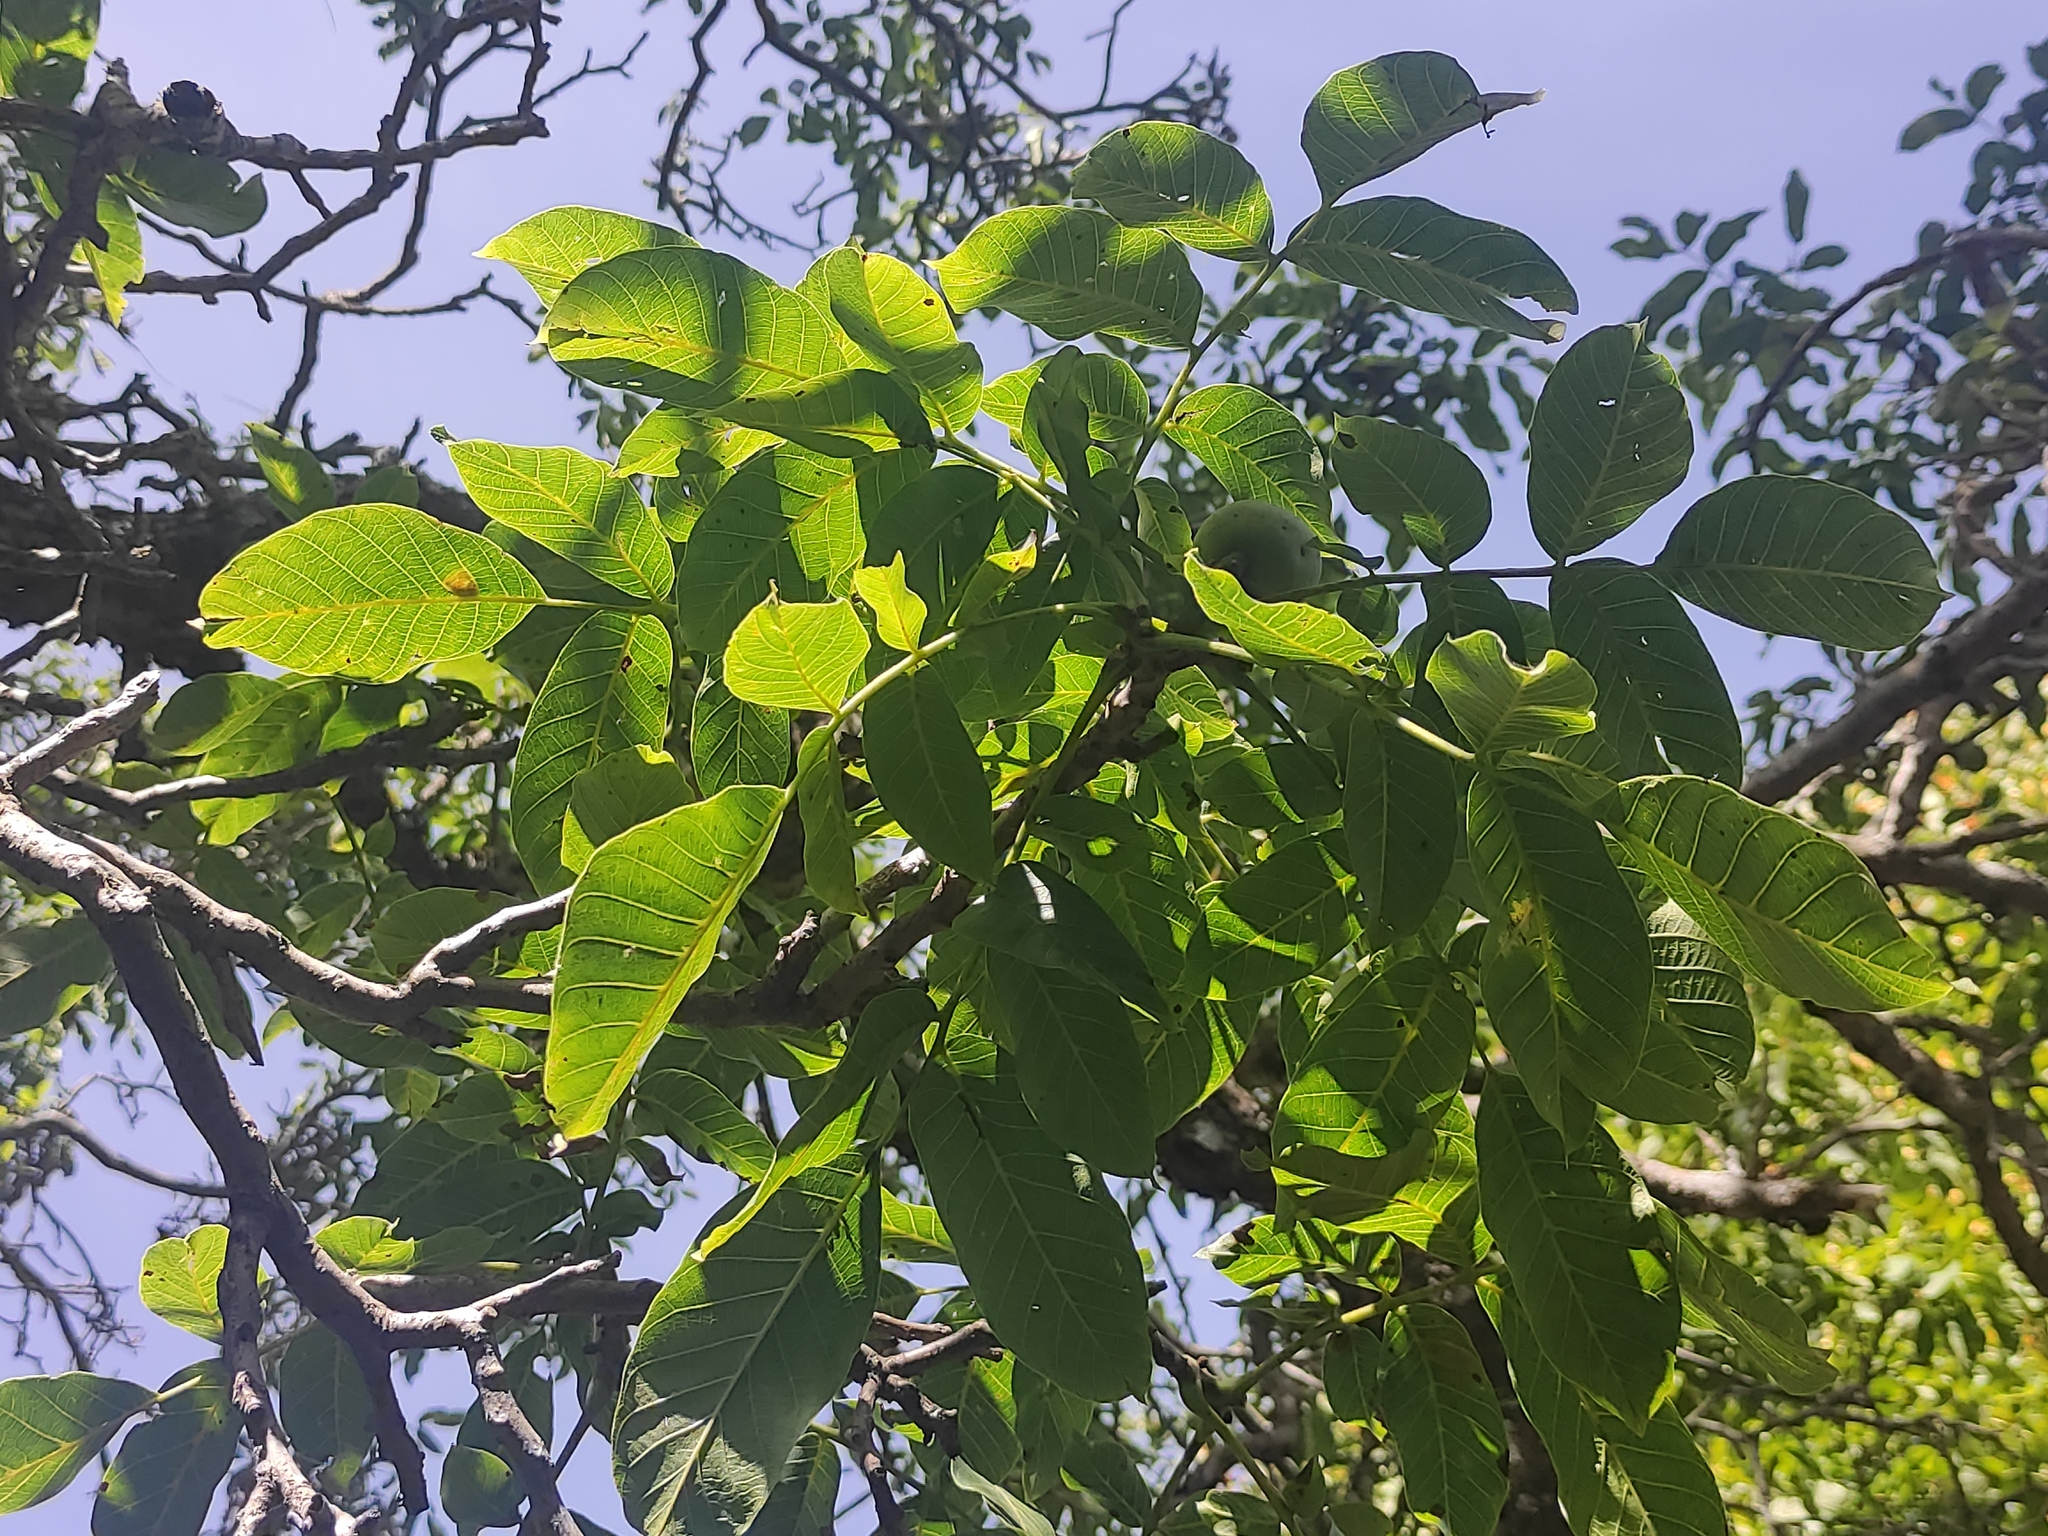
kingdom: Plantae
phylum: Tracheophyta
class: Magnoliopsida
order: Fagales
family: Juglandaceae
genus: Juglans
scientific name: Juglans regia
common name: Walnut
